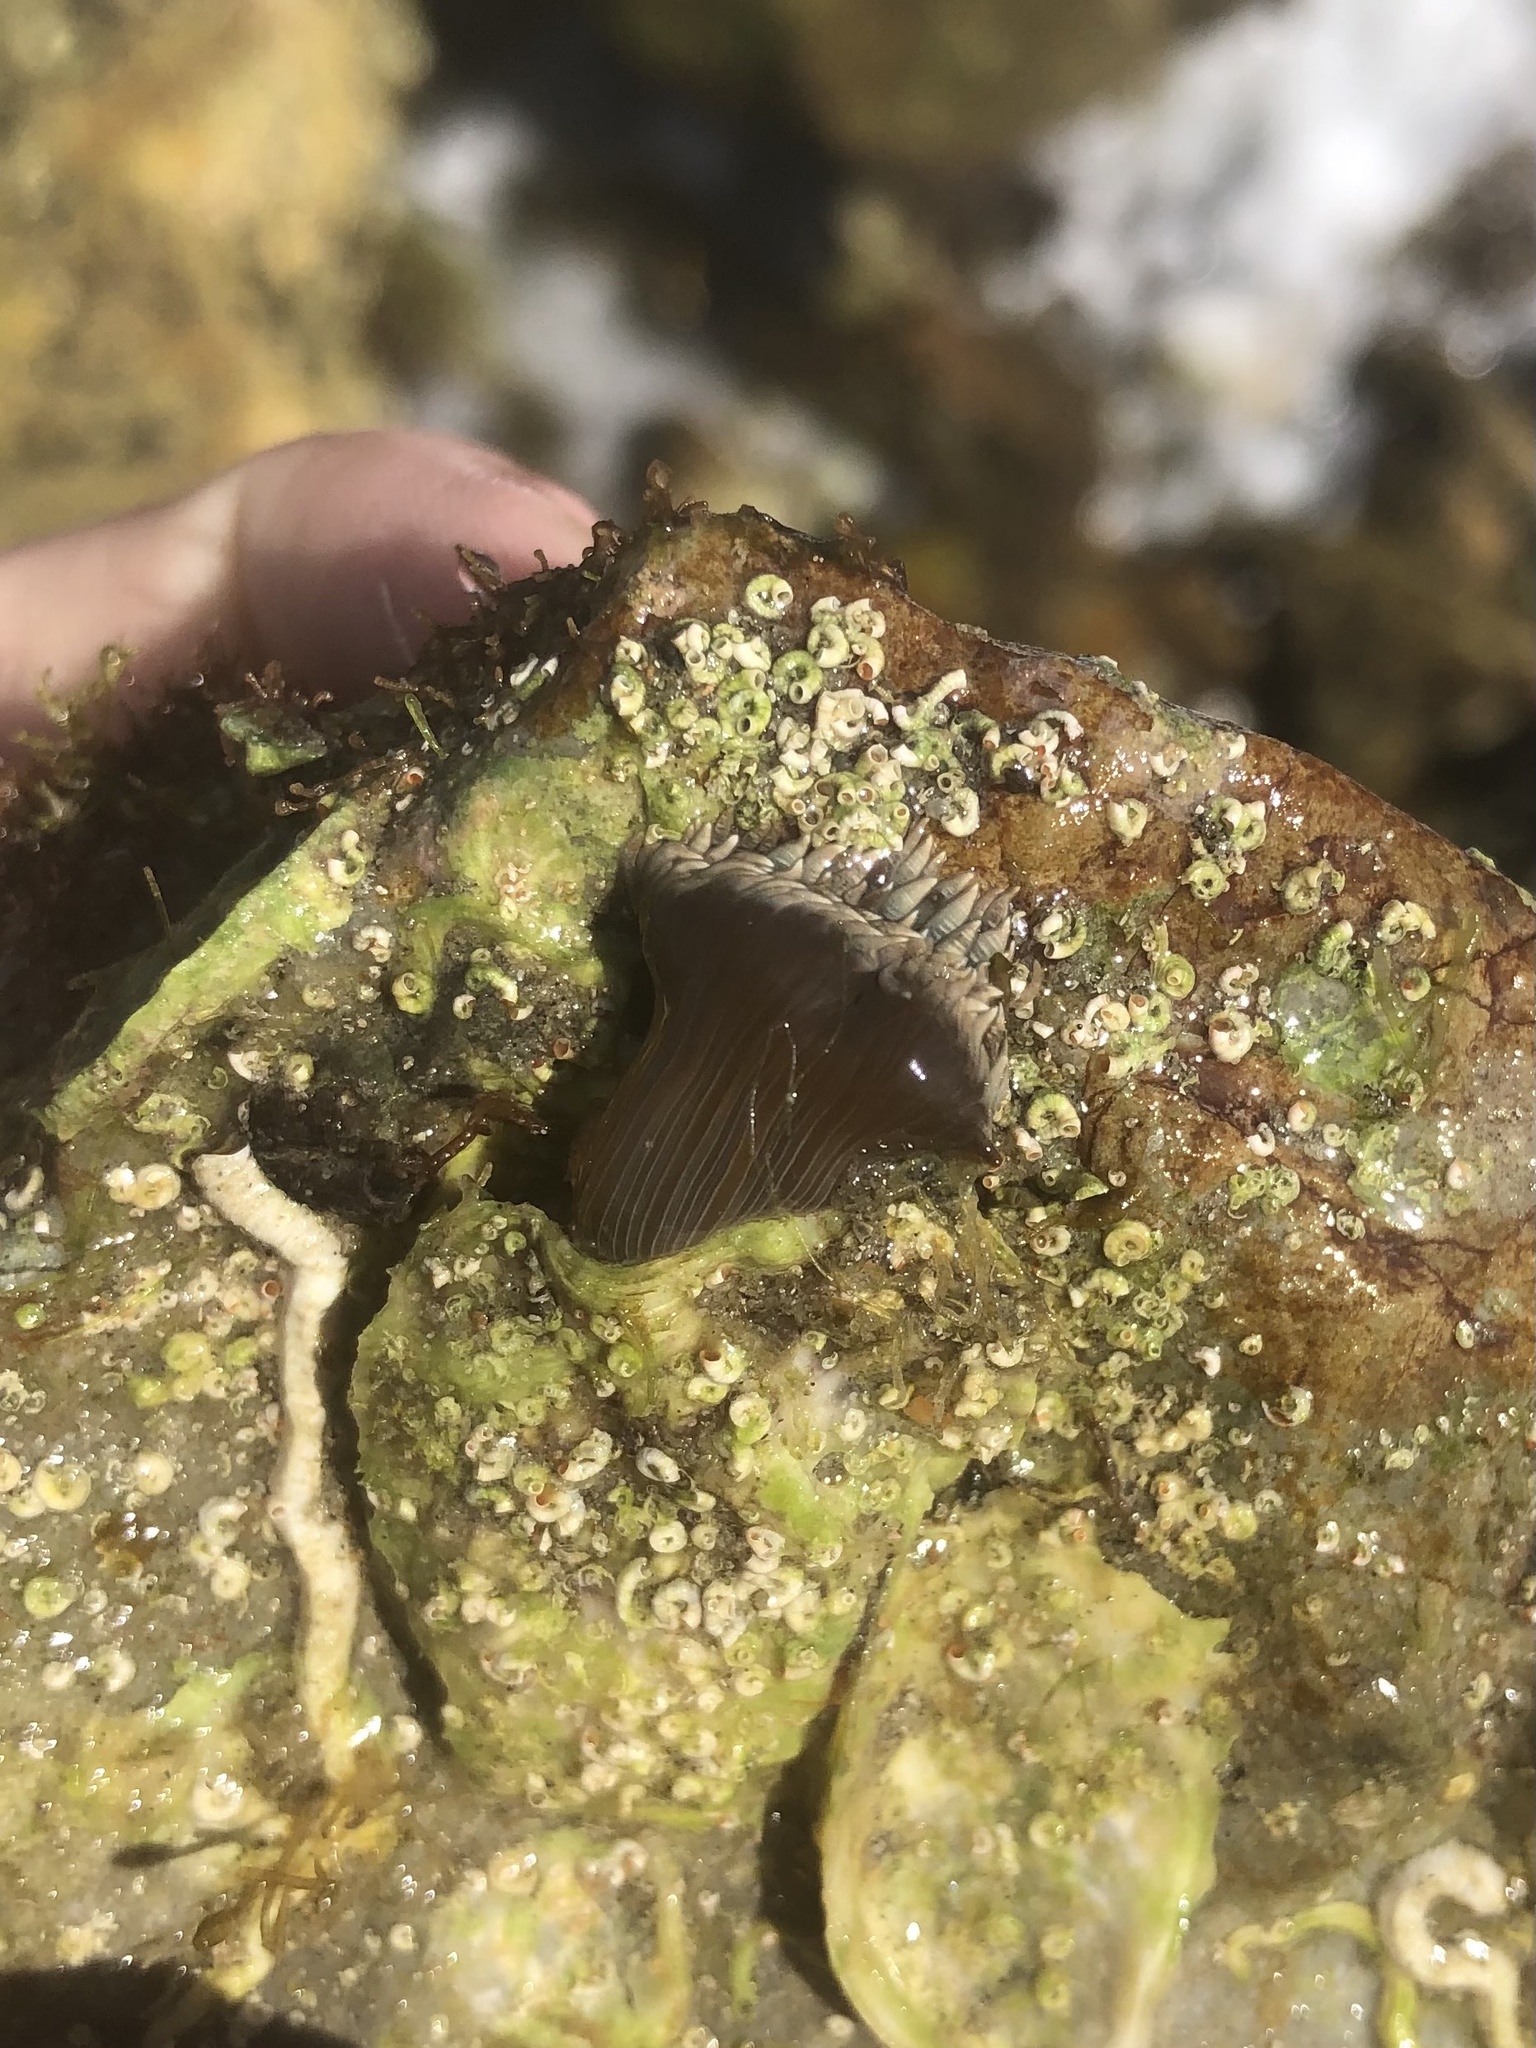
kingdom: Animalia
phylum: Cnidaria
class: Anthozoa
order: Actiniaria
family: Aiptasiidae
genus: Exaiptasia
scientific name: Exaiptasia diaphana
